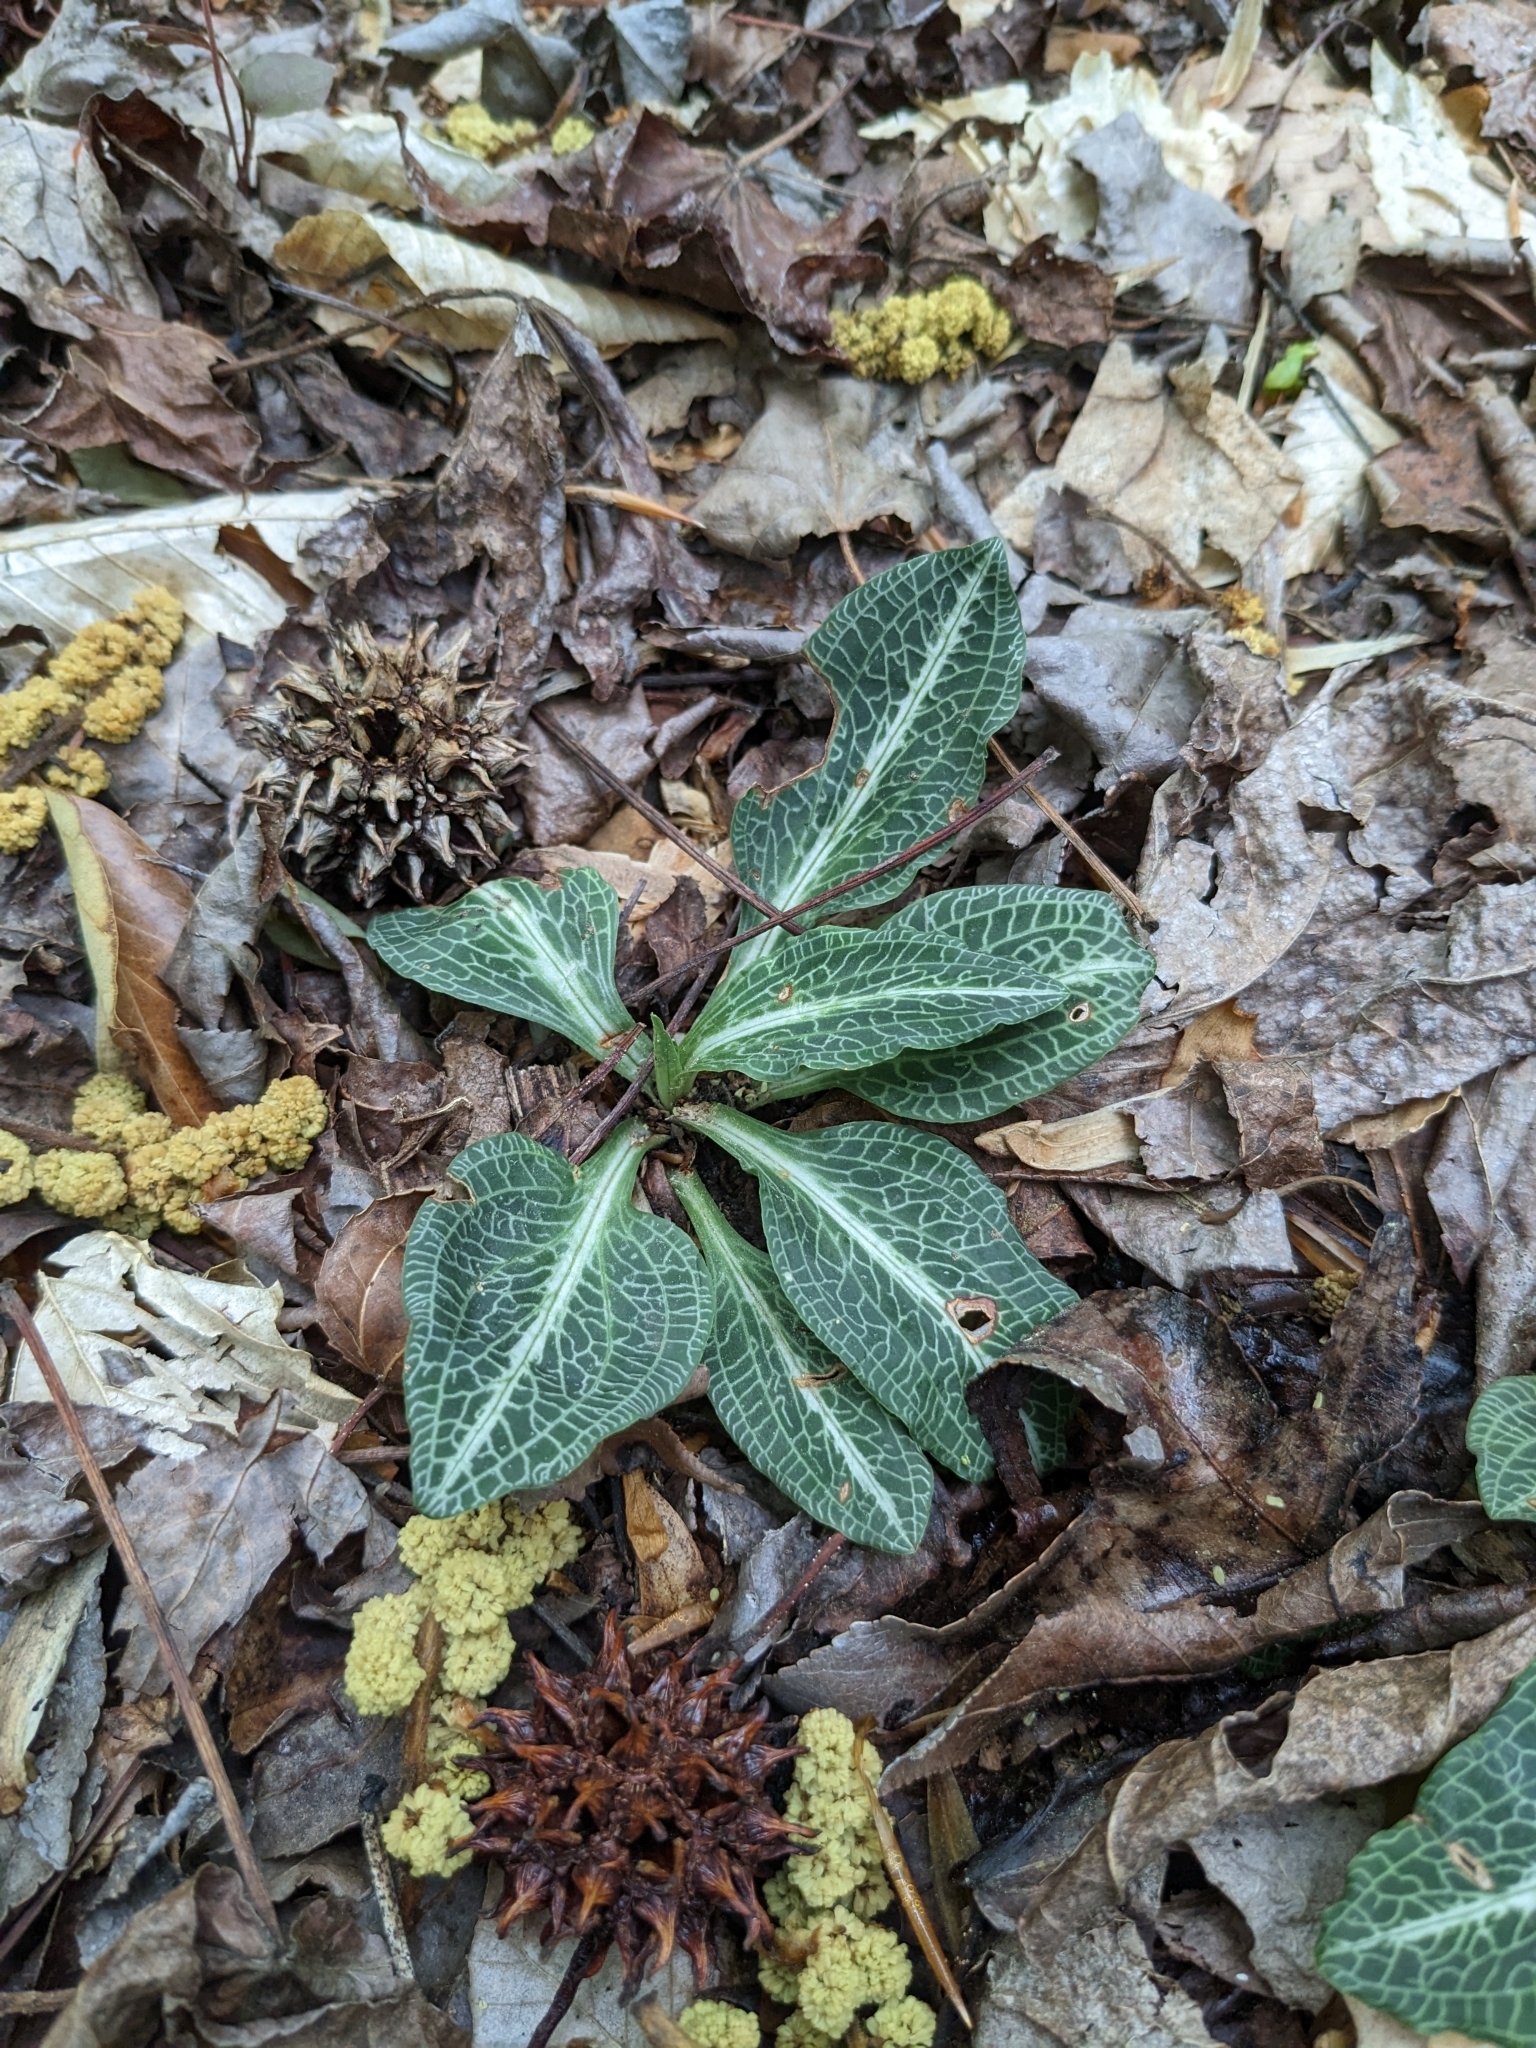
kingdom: Plantae
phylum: Tracheophyta
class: Liliopsida
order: Asparagales
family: Orchidaceae
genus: Goodyera
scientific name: Goodyera pubescens
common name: Downy rattlesnake-plantain
